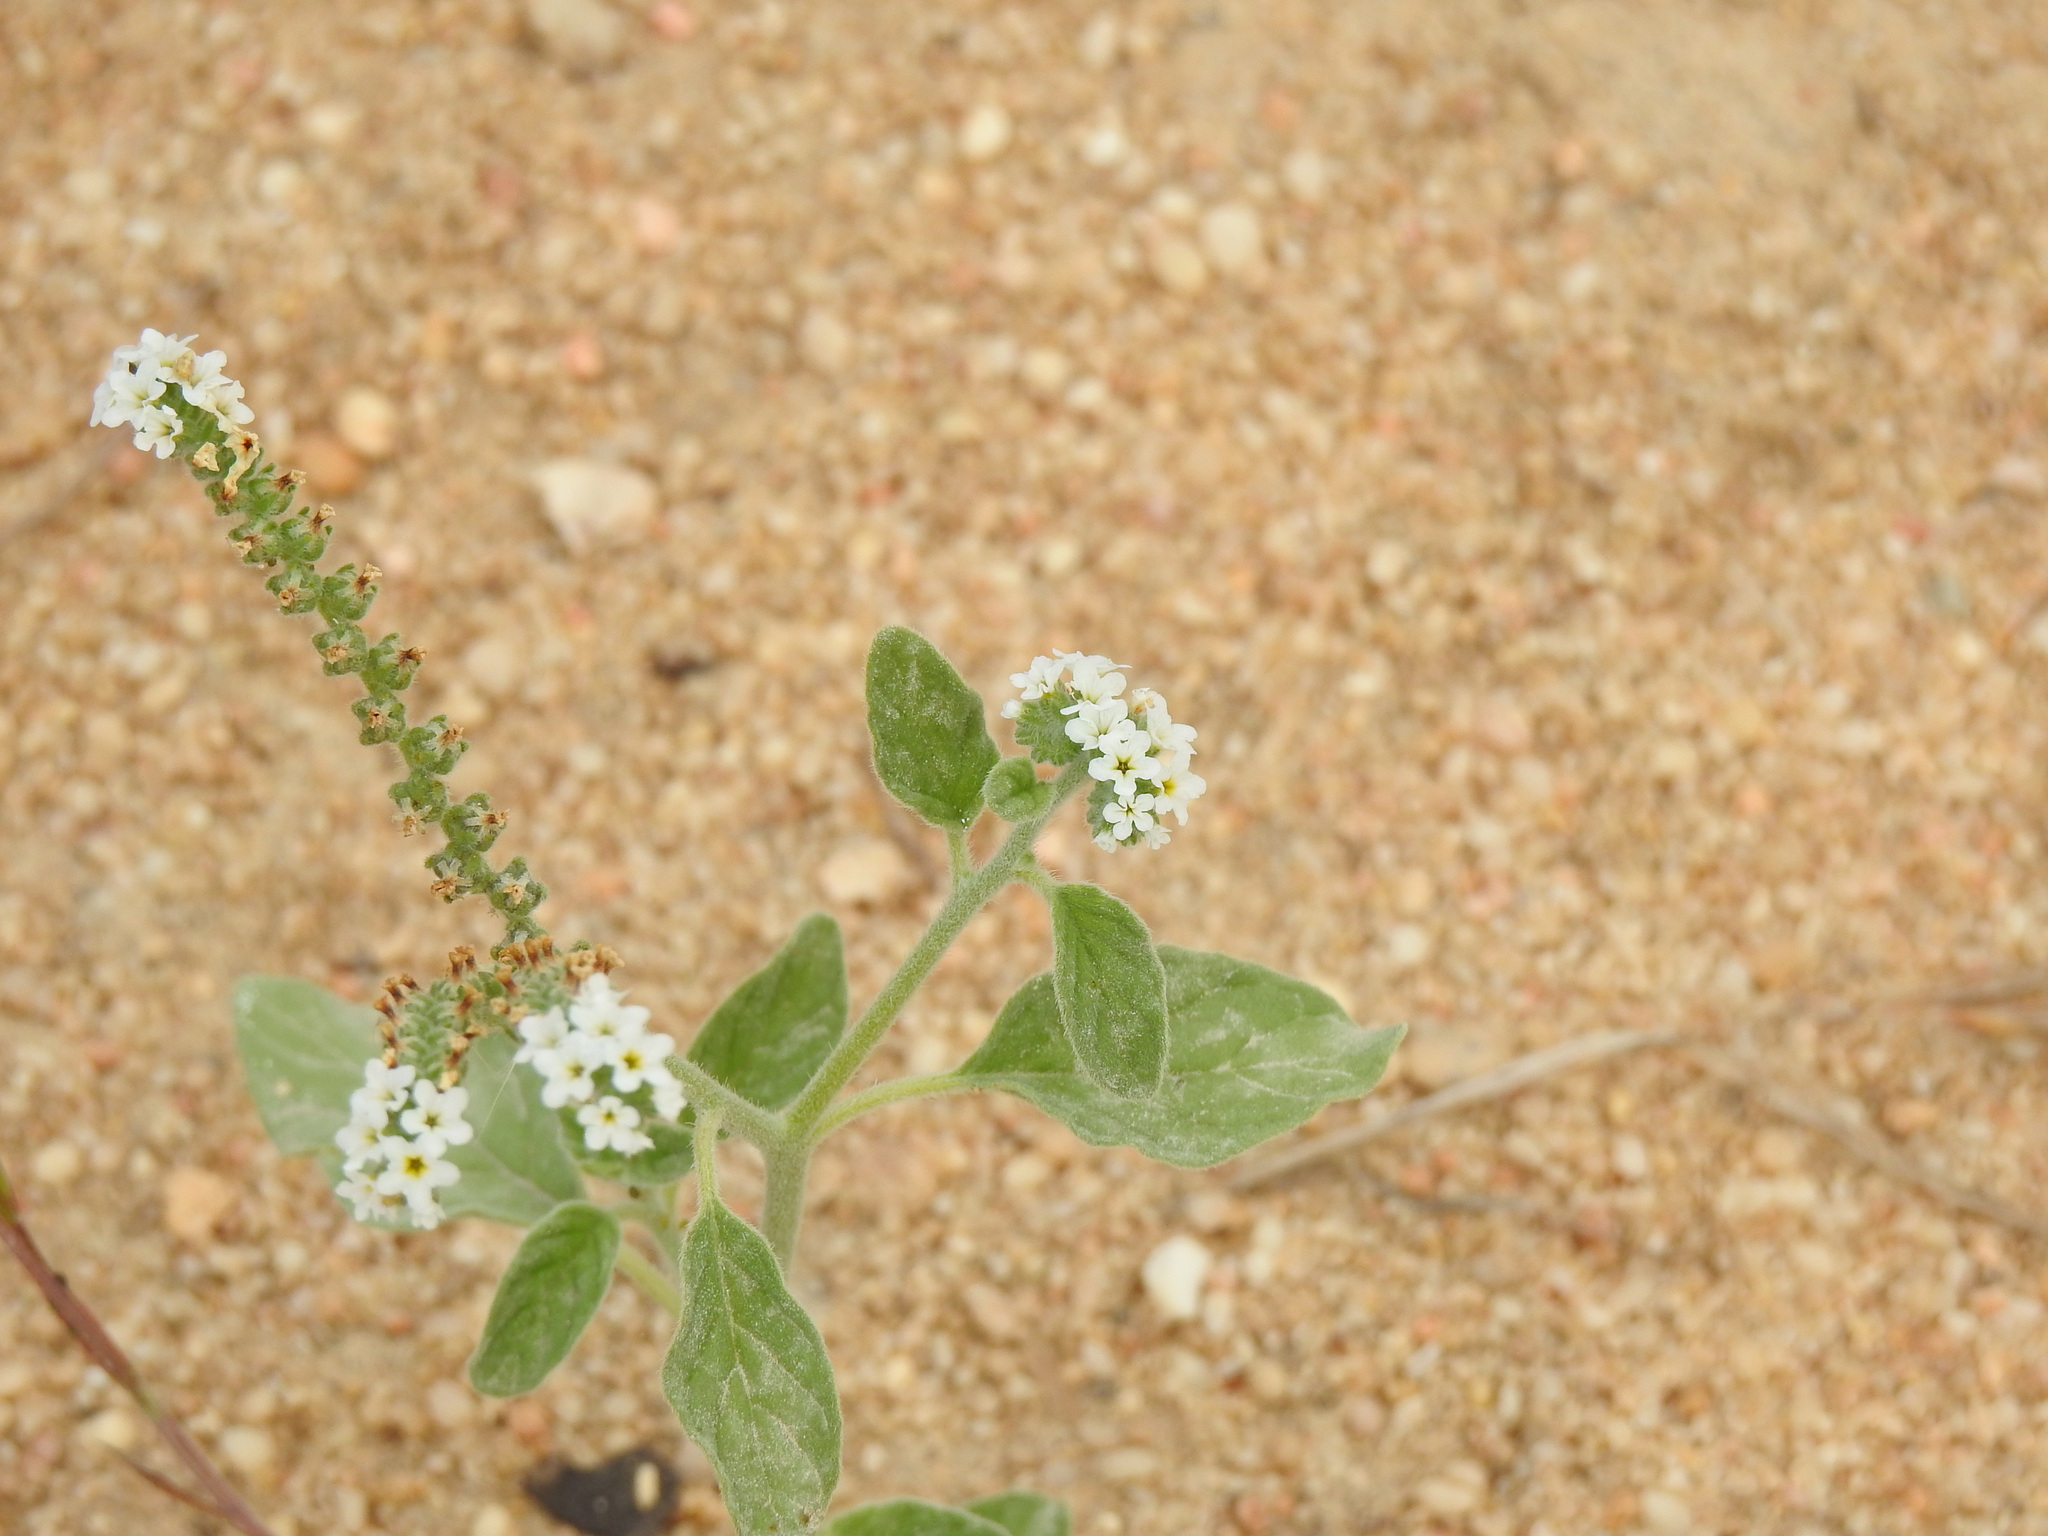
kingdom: Plantae
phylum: Tracheophyta
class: Magnoliopsida
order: Boraginales
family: Heliotropiaceae
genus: Heliotropium
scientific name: Heliotropium europaeum
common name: European heliotrope
